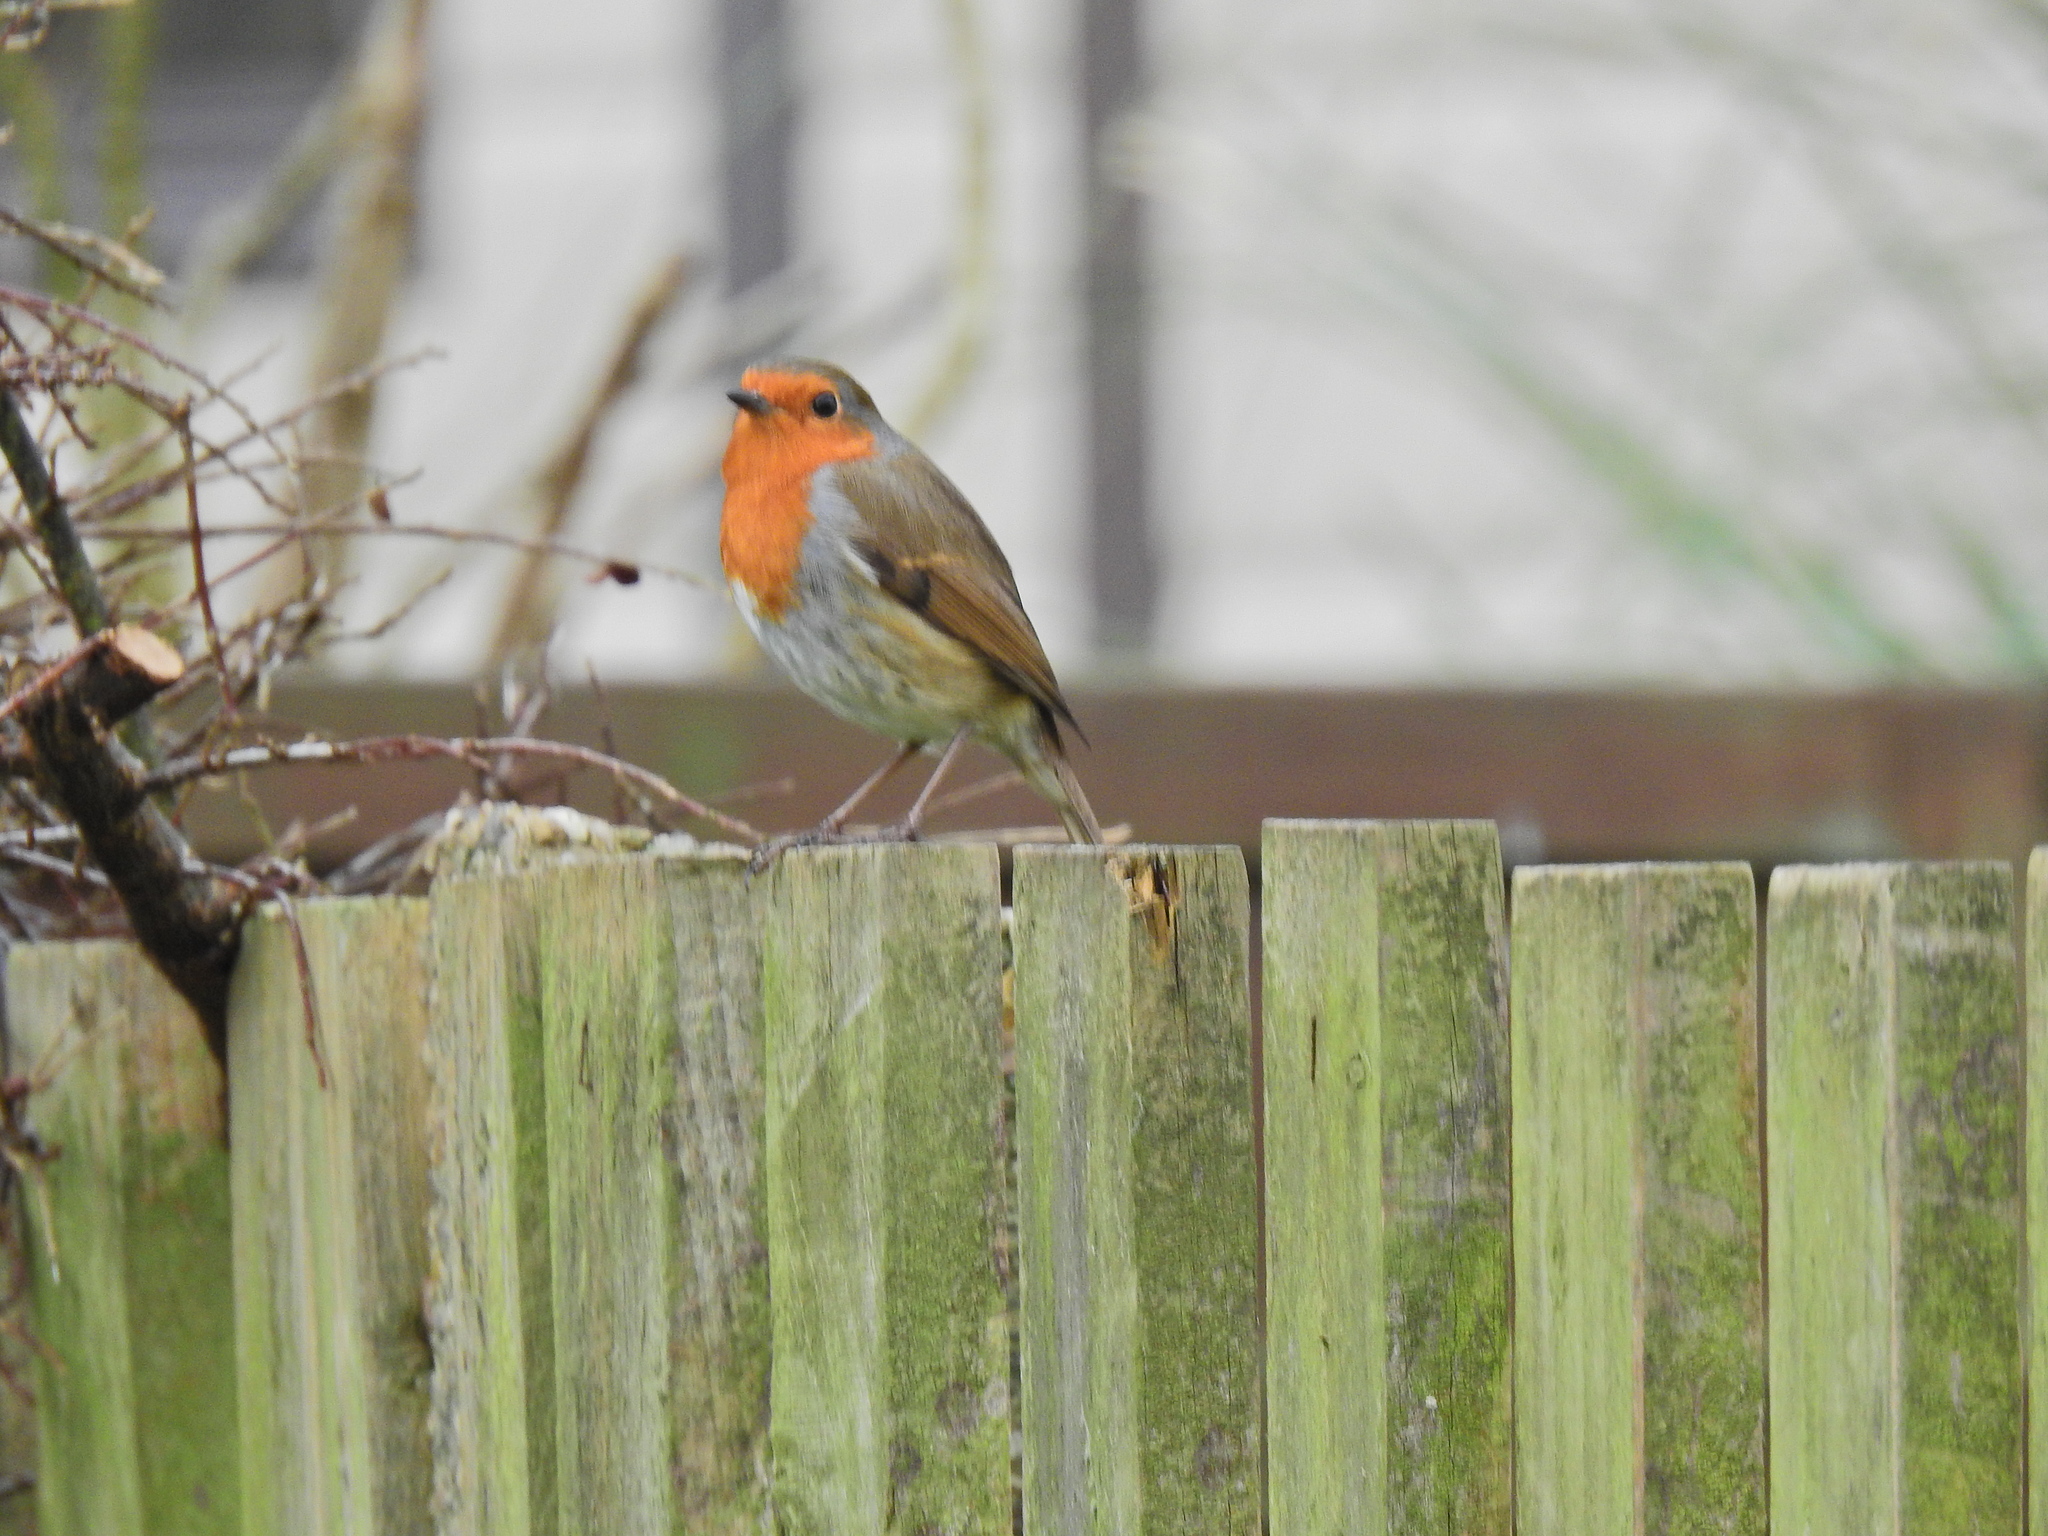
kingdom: Animalia
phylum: Chordata
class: Aves
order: Passeriformes
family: Muscicapidae
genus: Erithacus
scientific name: Erithacus rubecula
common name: European robin
